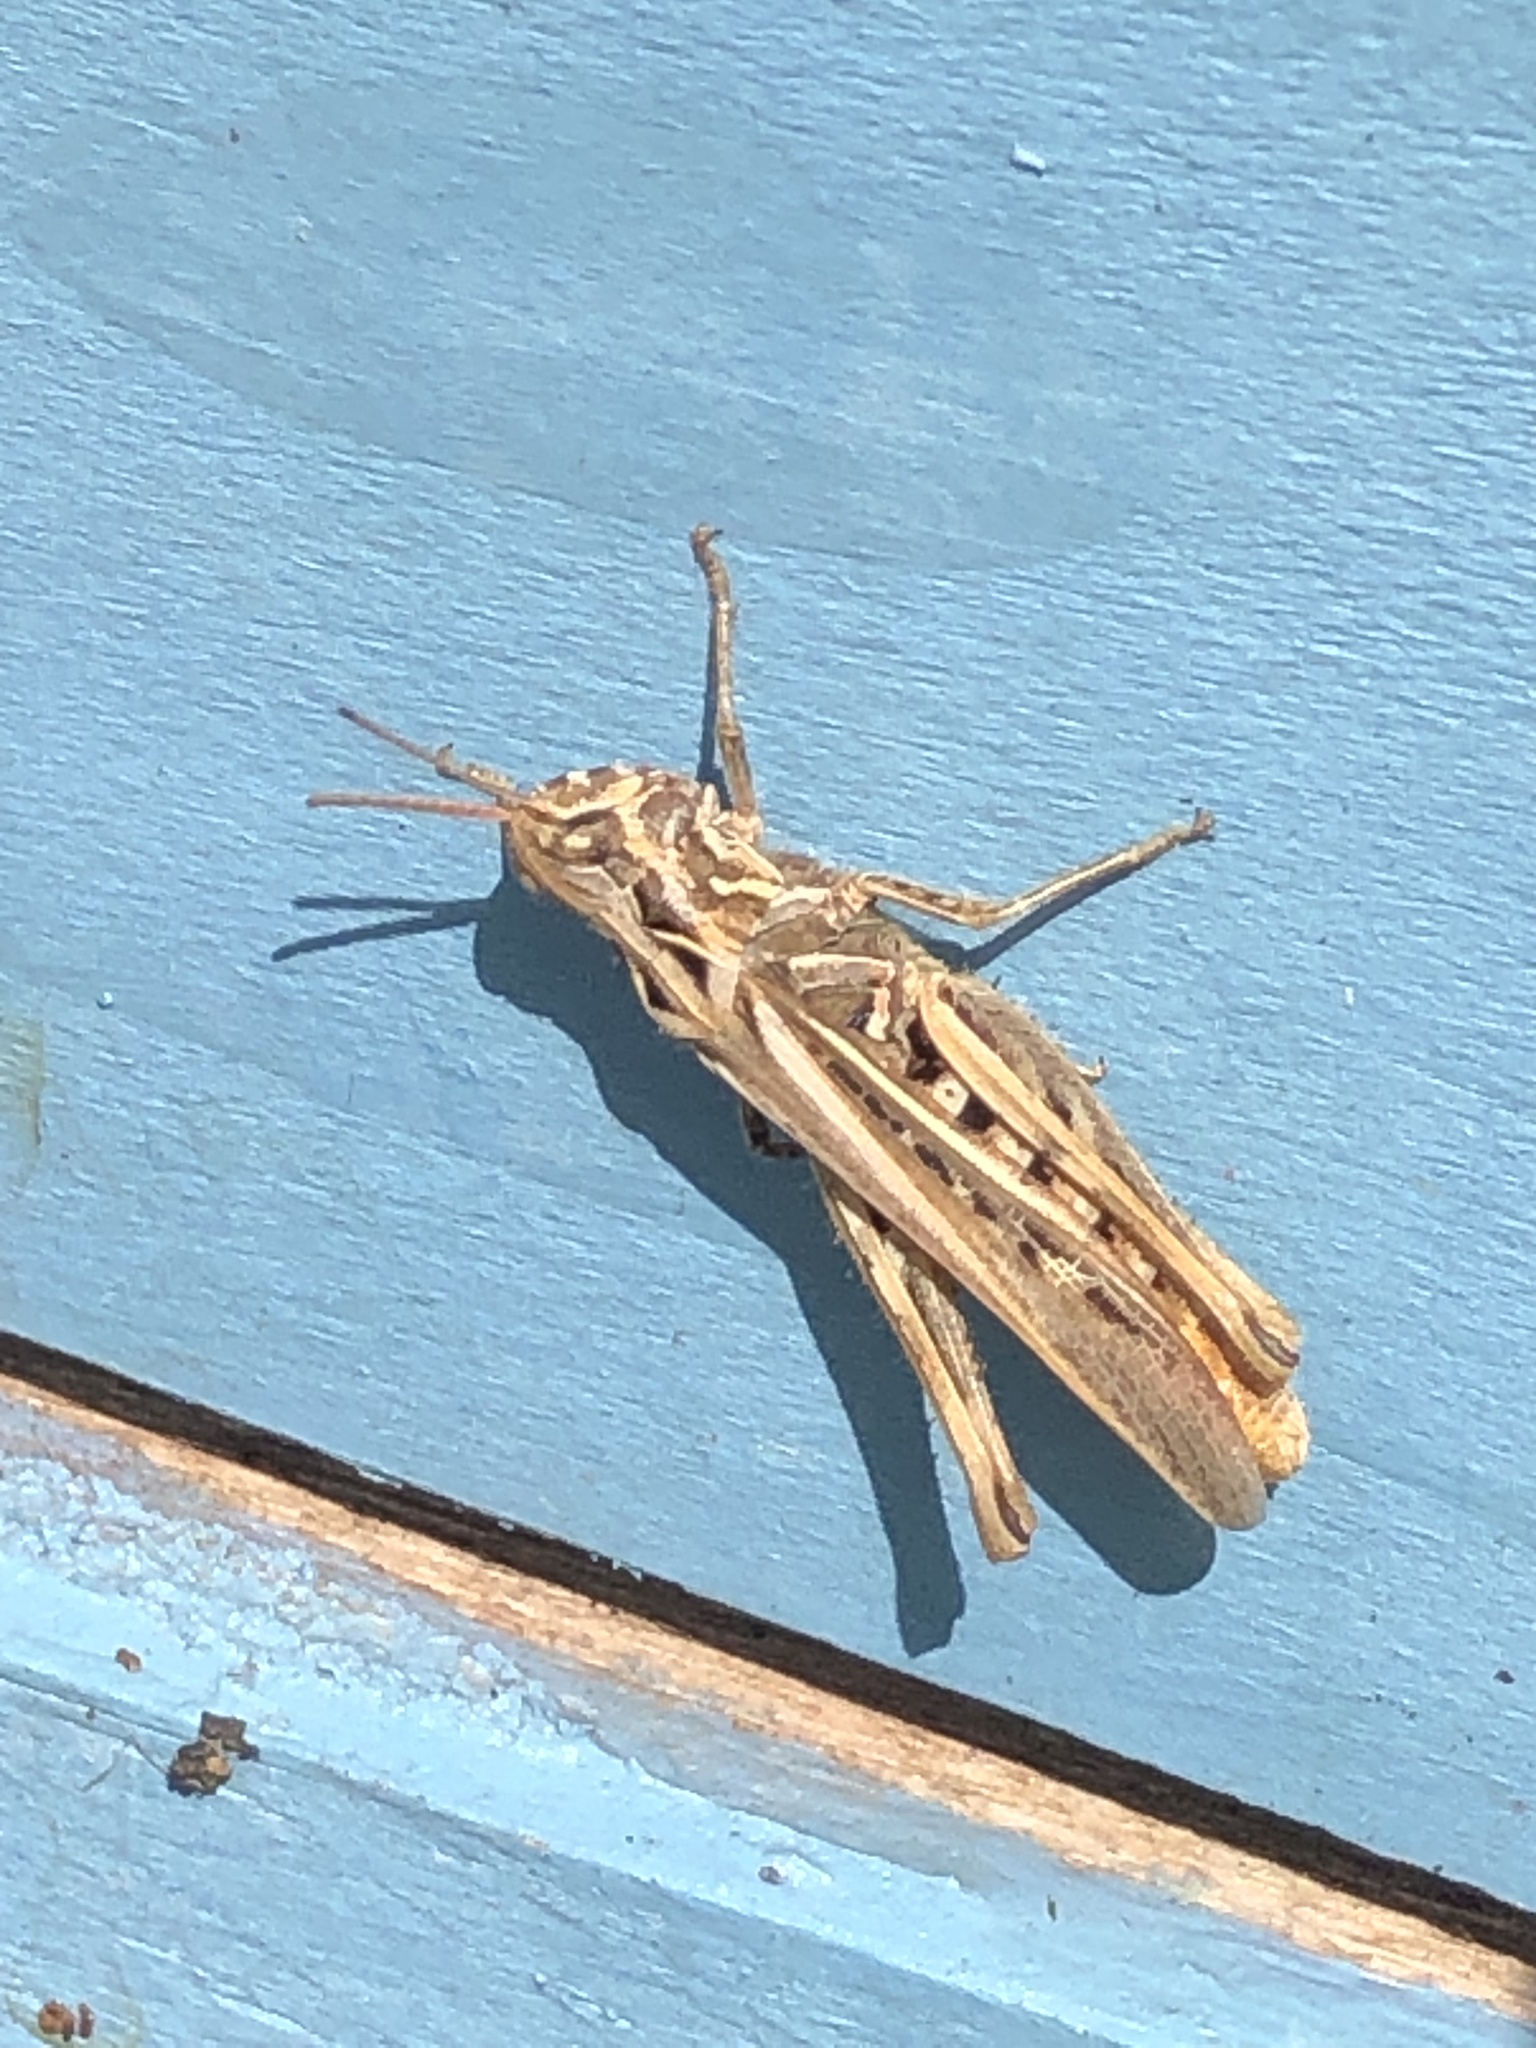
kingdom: Animalia
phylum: Arthropoda
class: Insecta
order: Orthoptera
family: Acrididae
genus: Chorthippus
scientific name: Chorthippus brunneus
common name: Field grasshopper
